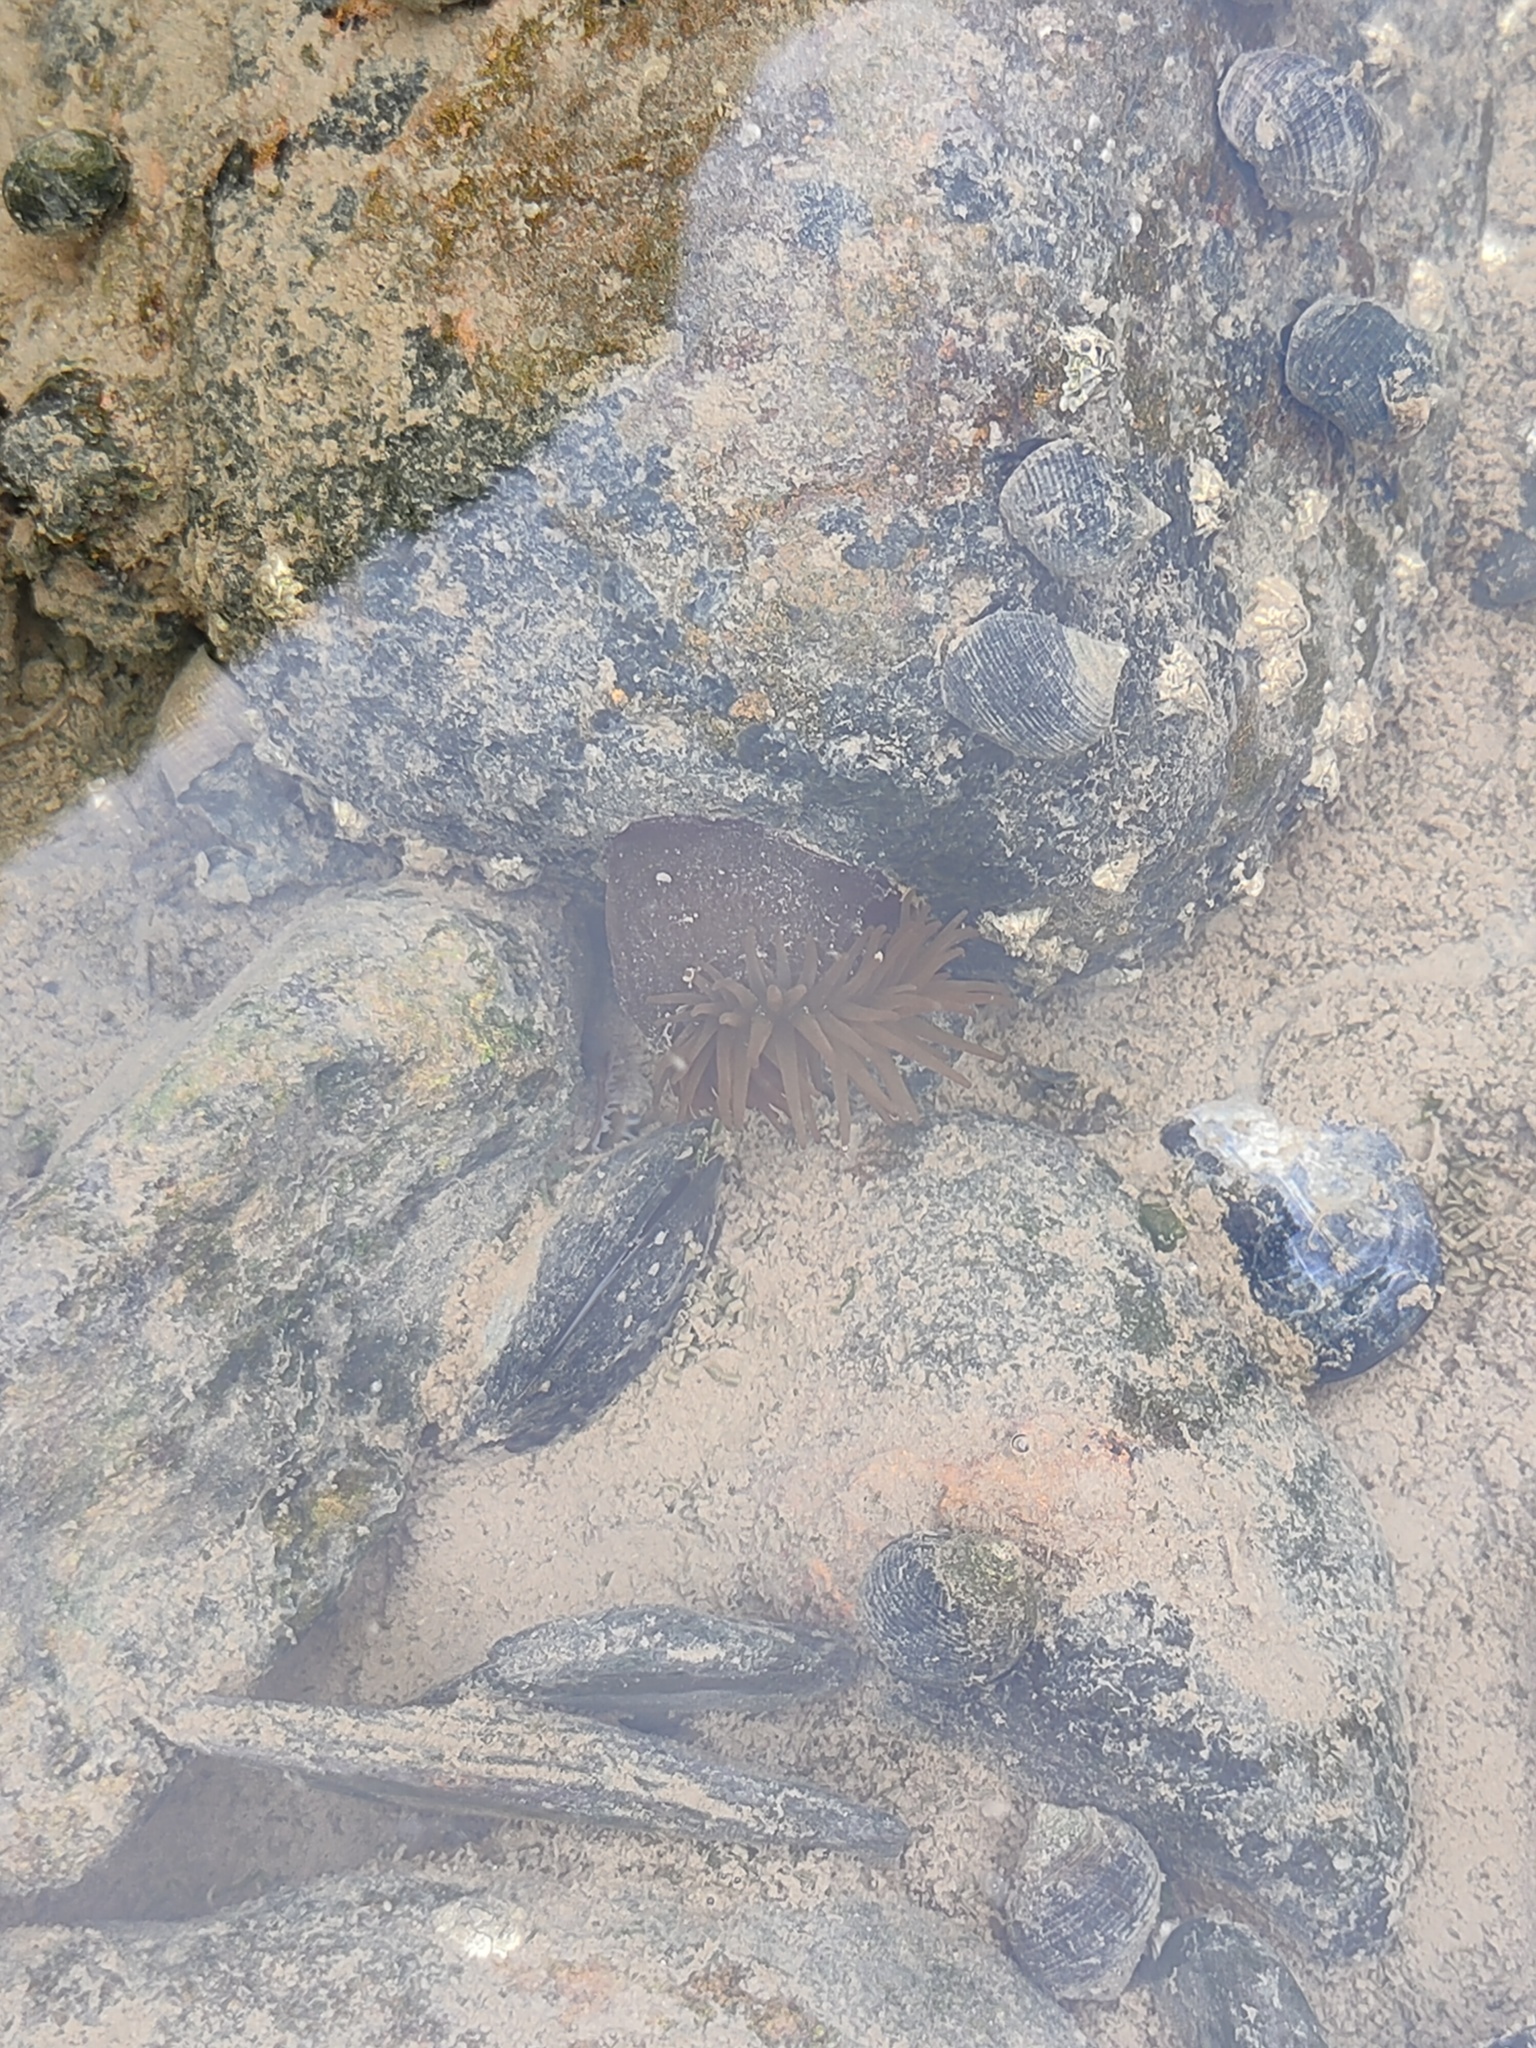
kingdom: Animalia
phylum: Cnidaria
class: Anthozoa
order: Actiniaria
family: Actiniidae
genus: Actinia
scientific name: Actinia equina
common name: Beadlet anemone
